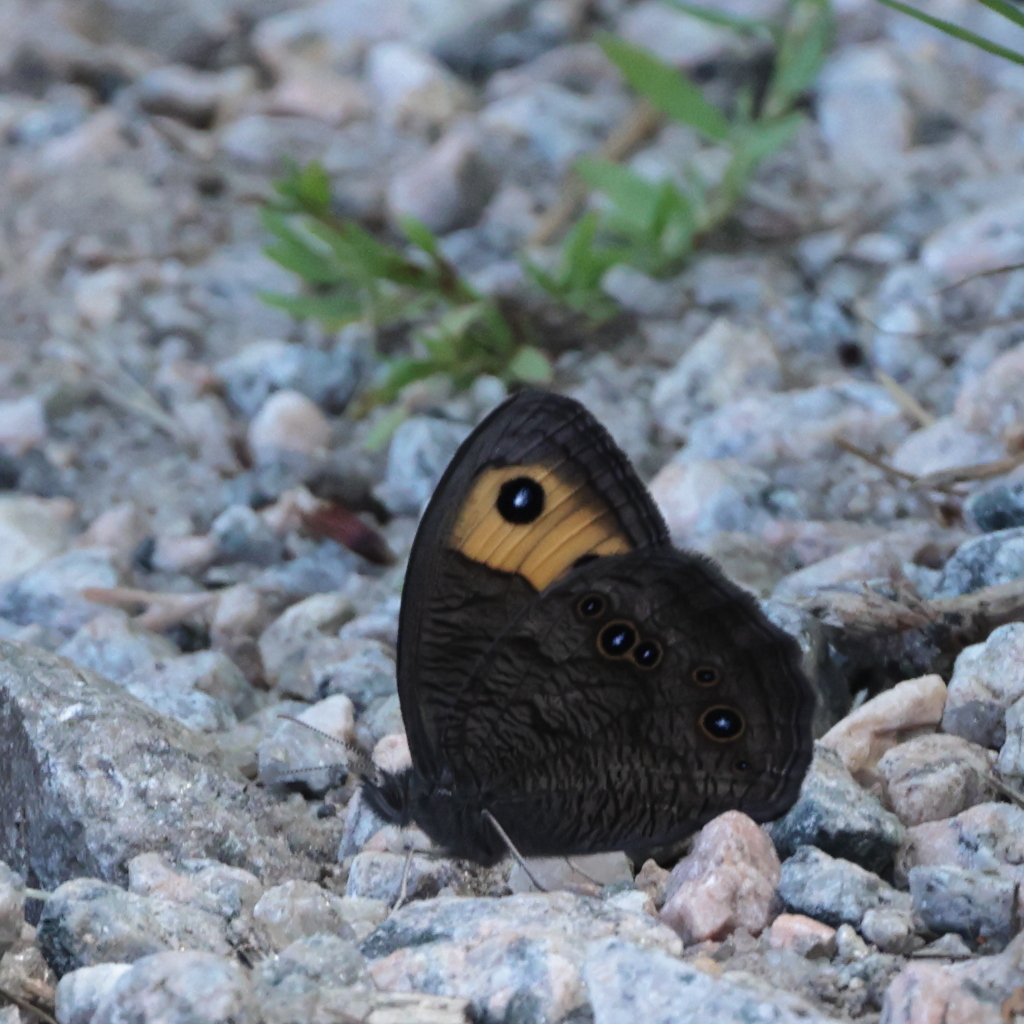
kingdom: Animalia
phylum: Arthropoda
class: Insecta
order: Lepidoptera
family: Nymphalidae
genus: Cercyonis
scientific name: Cercyonis pegala
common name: Common wood-nymph
